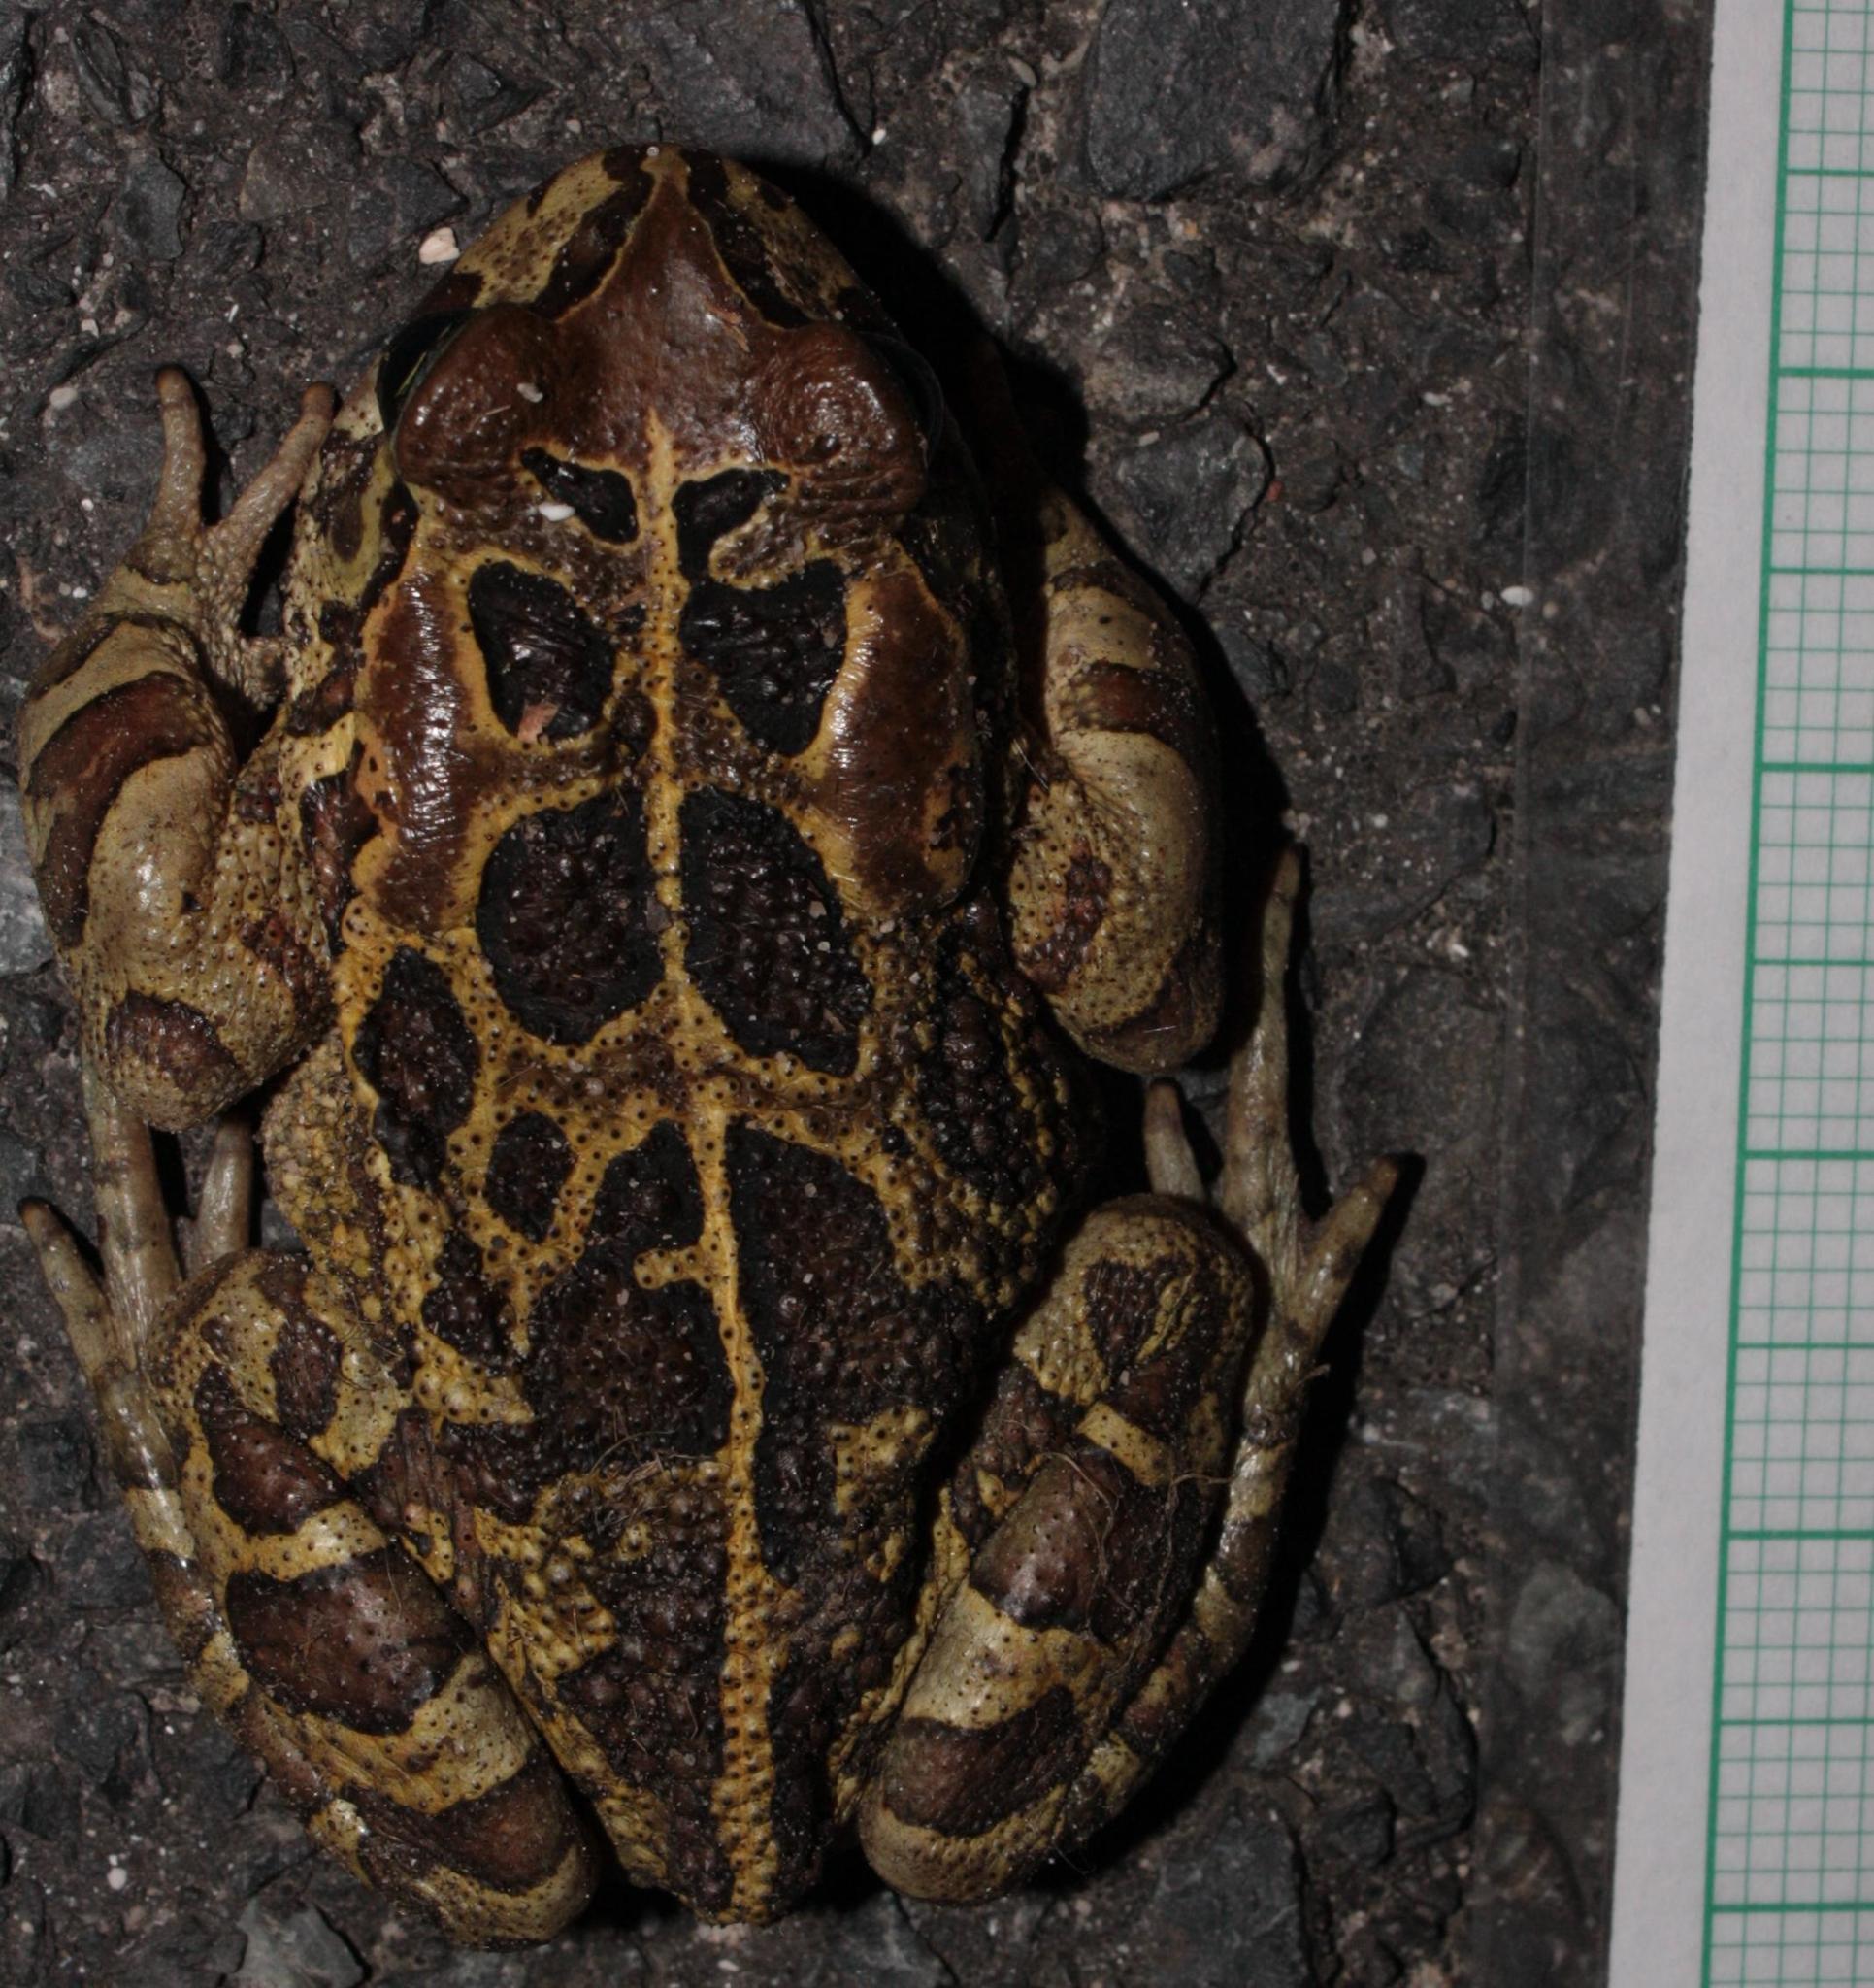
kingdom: Animalia
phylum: Chordata
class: Amphibia
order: Anura
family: Bufonidae
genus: Sclerophrys
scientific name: Sclerophrys pantherina
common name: Panther toad
